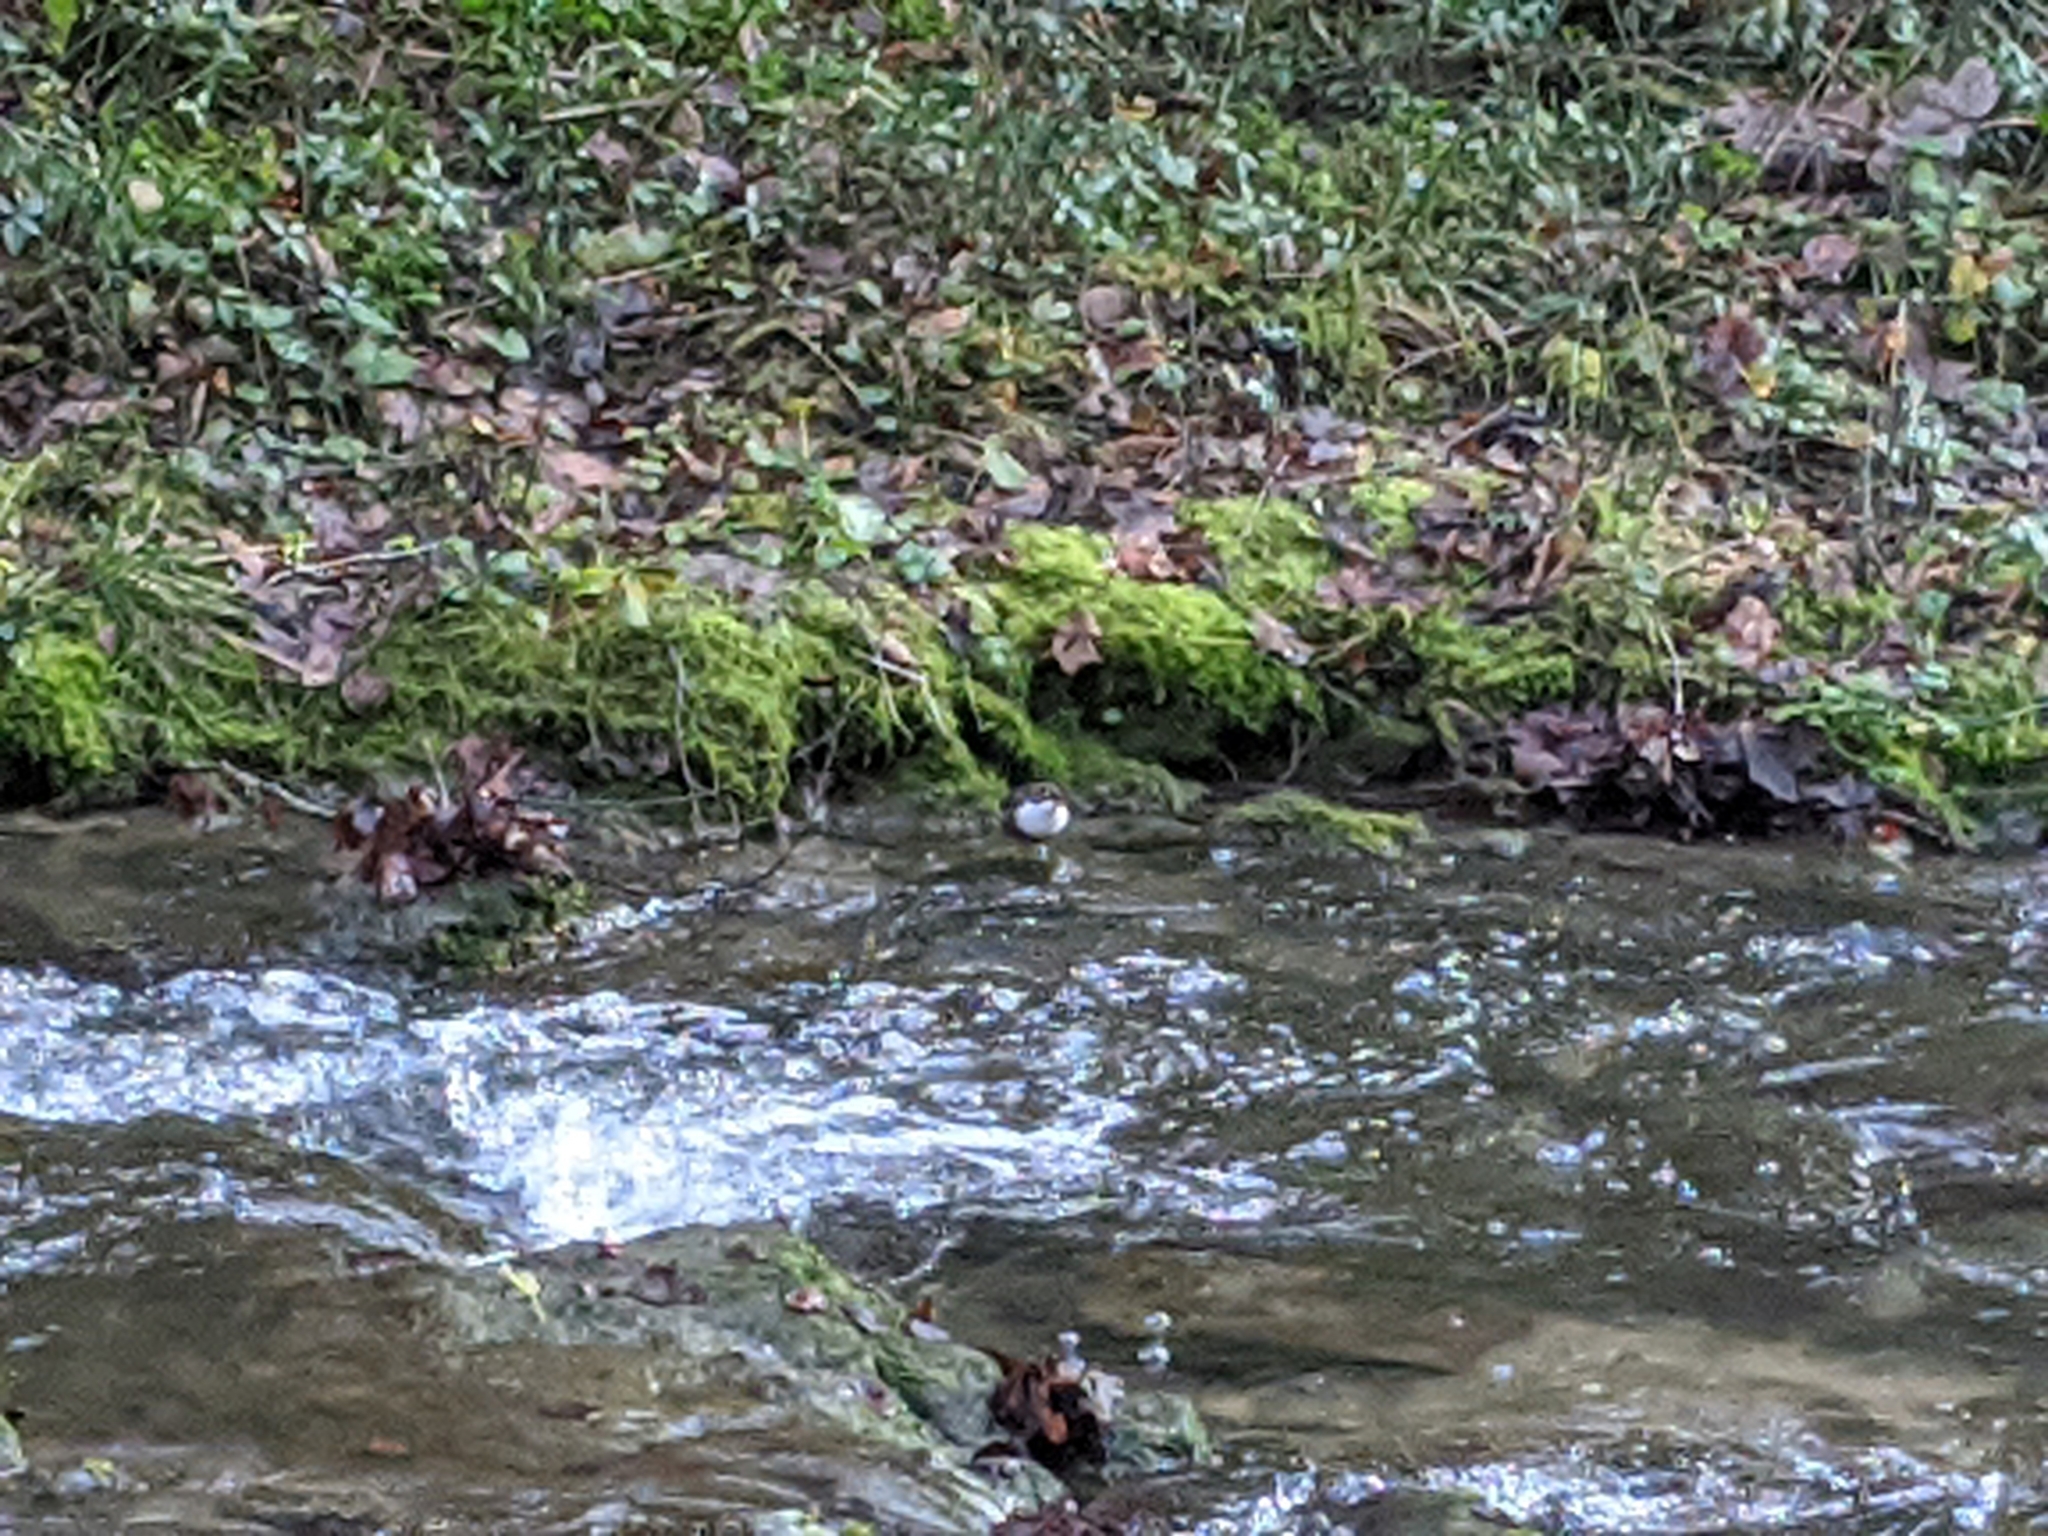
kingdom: Animalia
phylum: Chordata
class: Aves
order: Passeriformes
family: Cinclidae
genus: Cinclus
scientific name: Cinclus cinclus
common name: White-throated dipper
